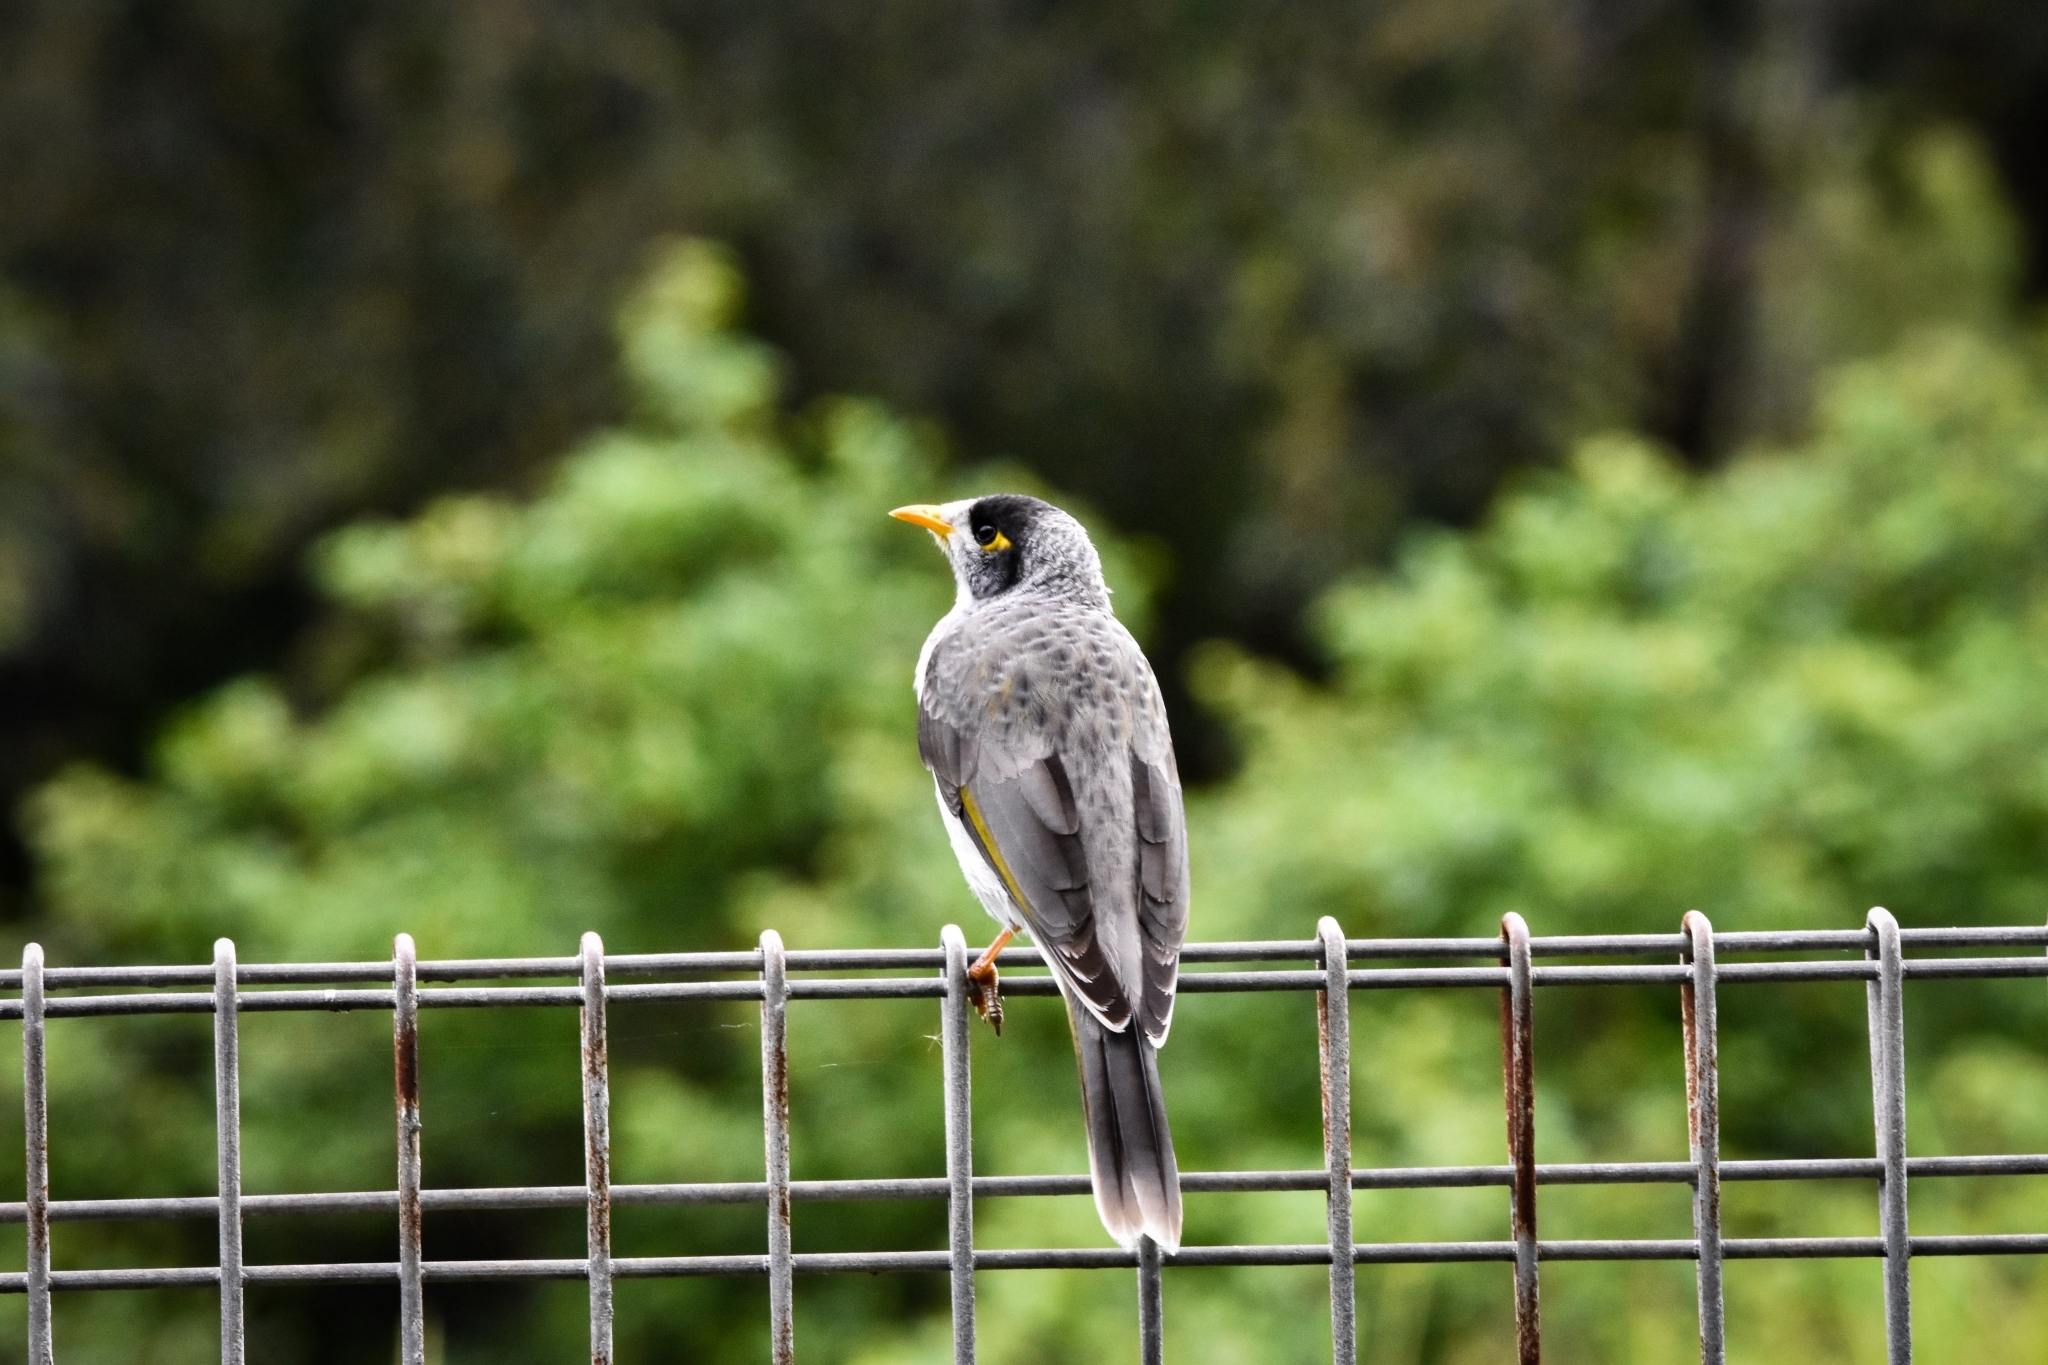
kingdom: Animalia
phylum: Chordata
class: Aves
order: Passeriformes
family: Meliphagidae
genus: Manorina
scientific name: Manorina melanocephala
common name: Noisy miner
